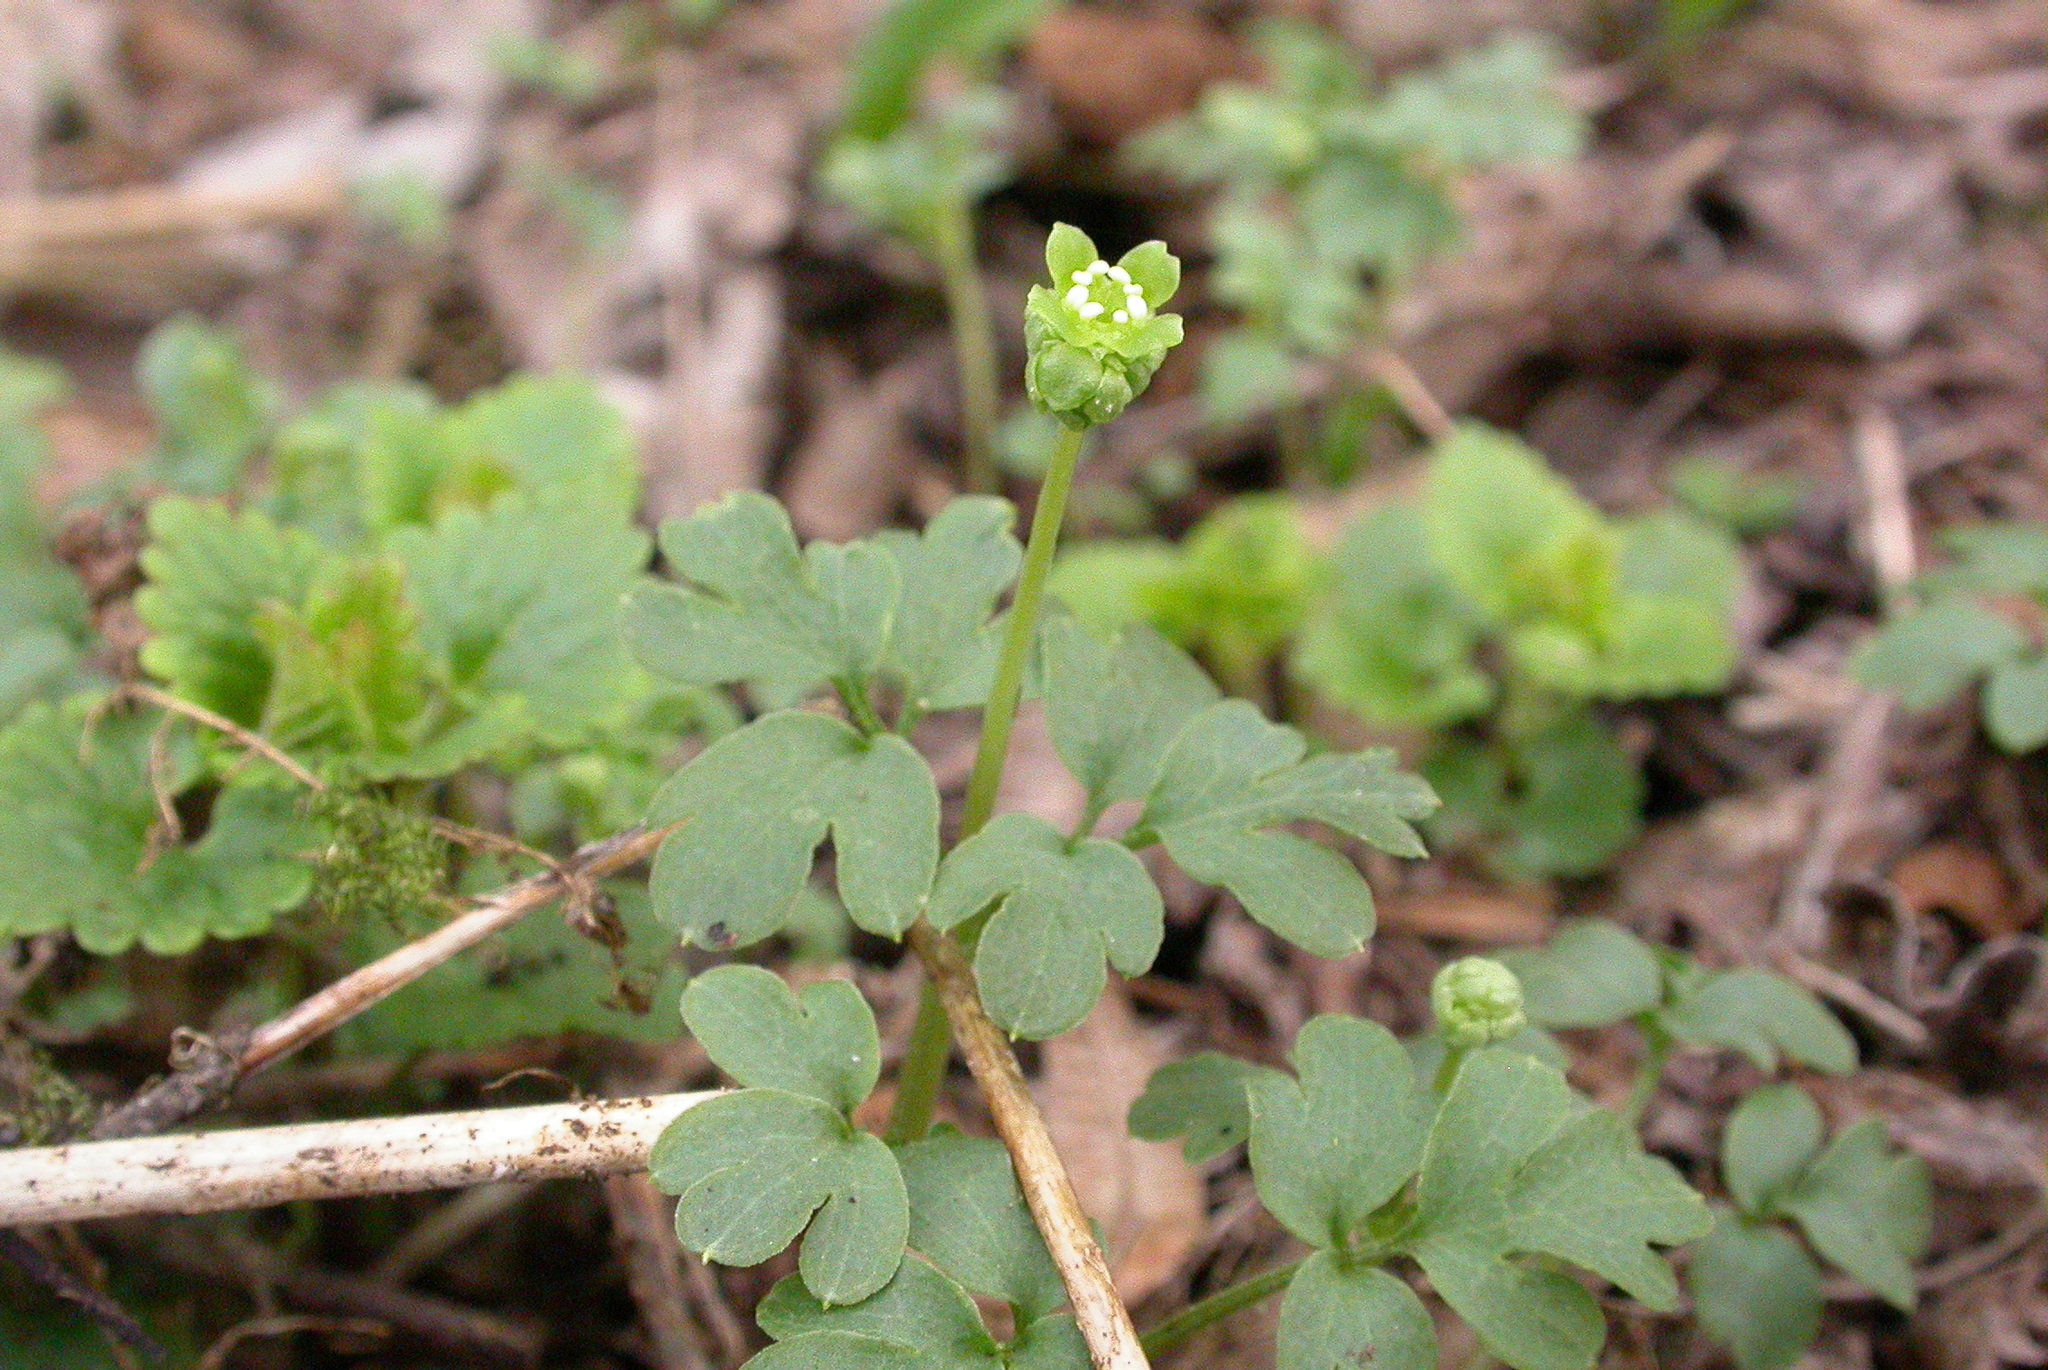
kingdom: Plantae
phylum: Tracheophyta
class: Magnoliopsida
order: Dipsacales
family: Viburnaceae
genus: Adoxa
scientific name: Adoxa moschatellina
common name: Moschatel
